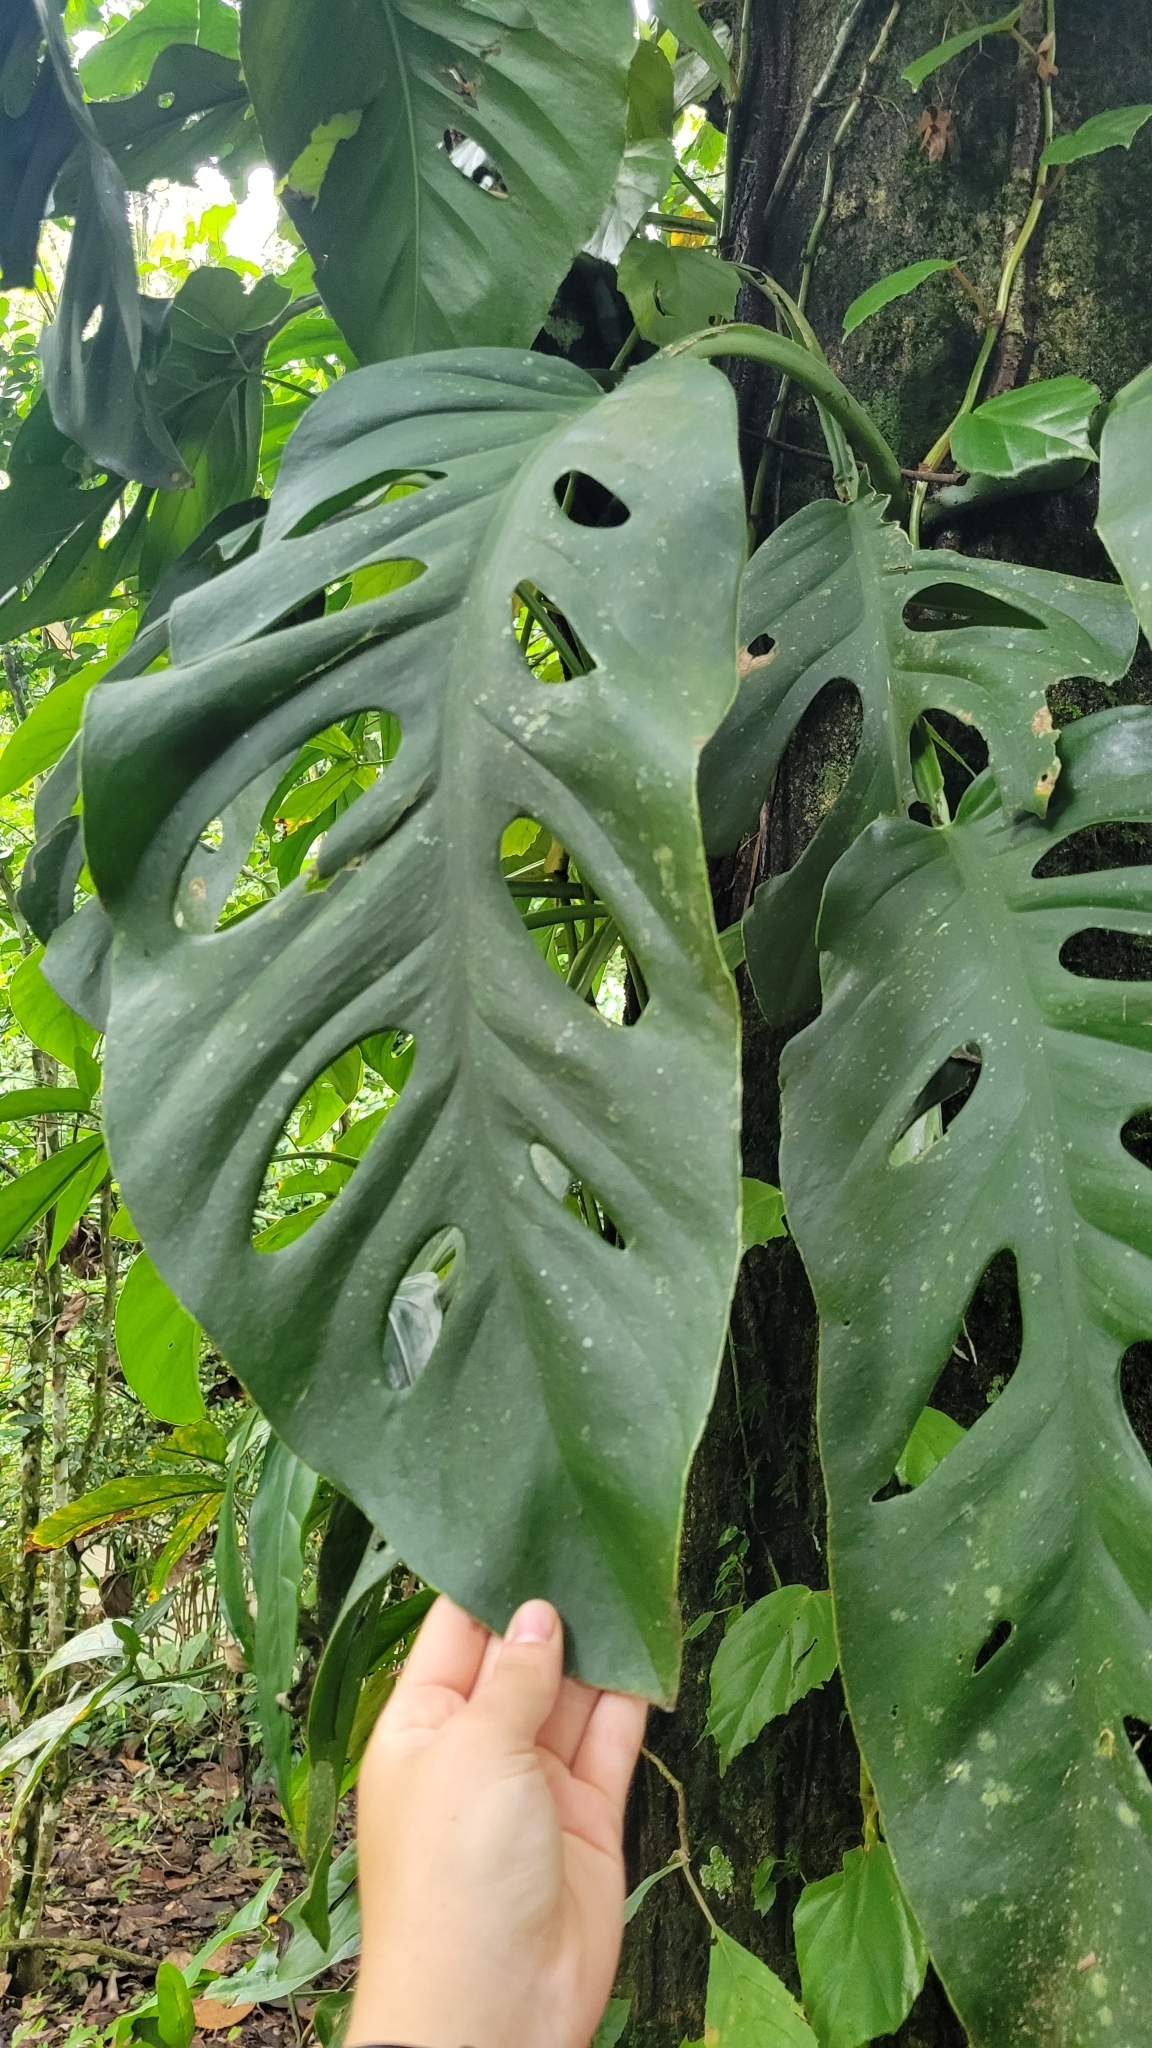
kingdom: Plantae
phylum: Tracheophyta
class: Liliopsida
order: Alismatales
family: Araceae
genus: Monstera
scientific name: Monstera acuminata
